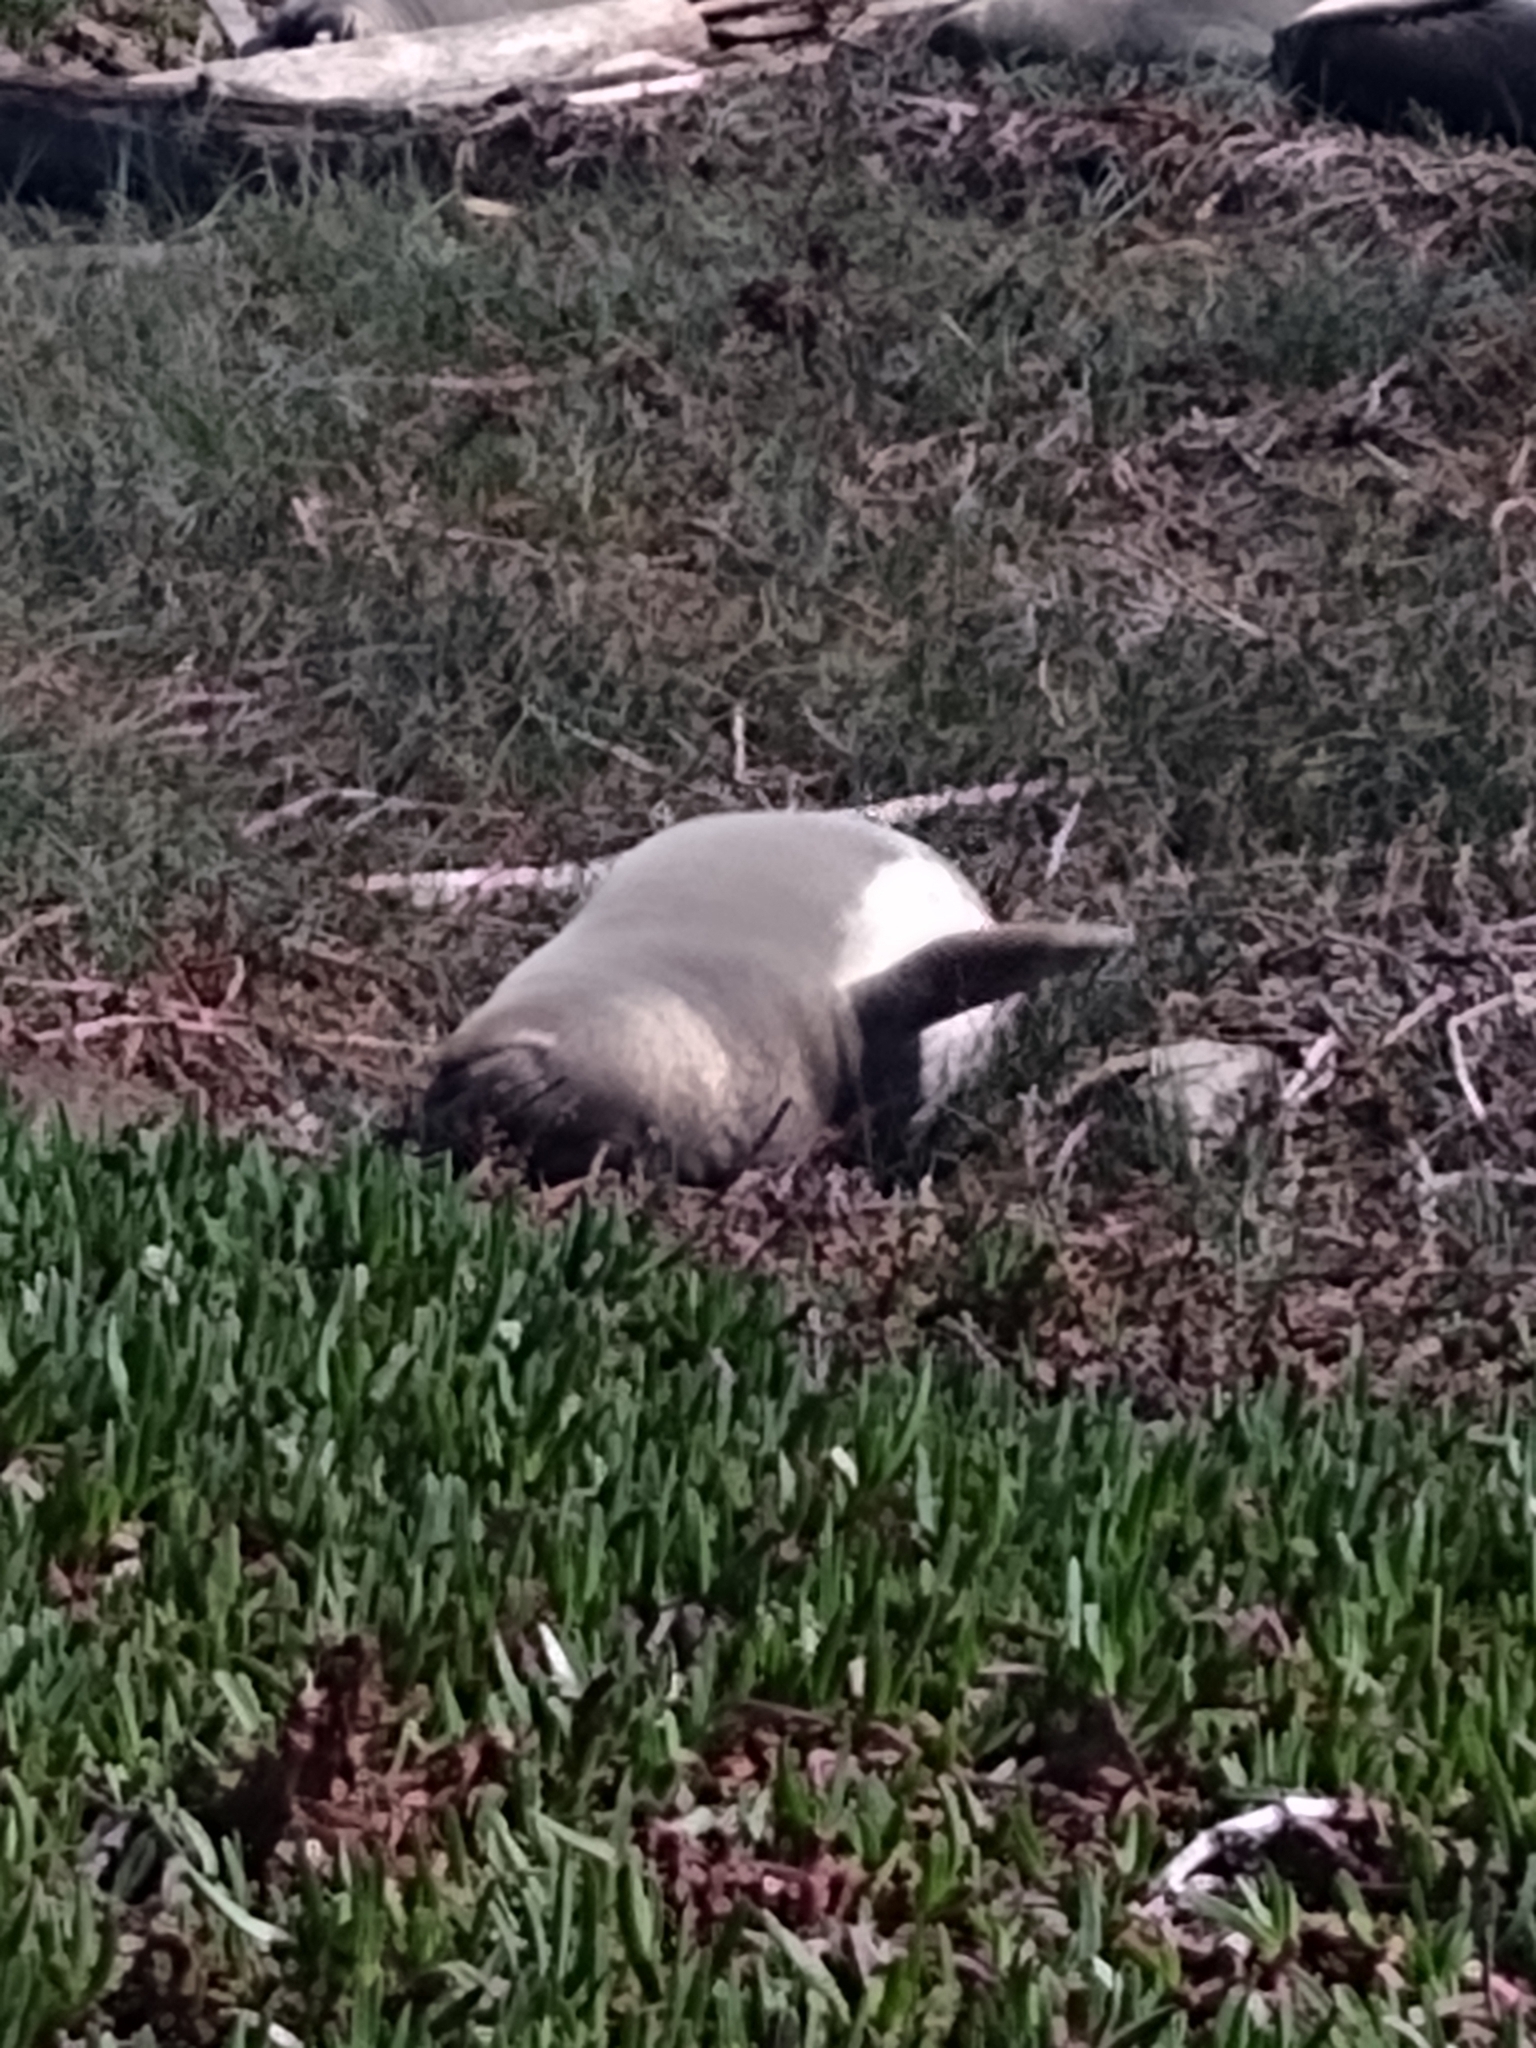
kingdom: Animalia
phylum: Chordata
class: Mammalia
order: Carnivora
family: Phocidae
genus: Mirounga
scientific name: Mirounga angustirostris
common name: Northern elephant seal
